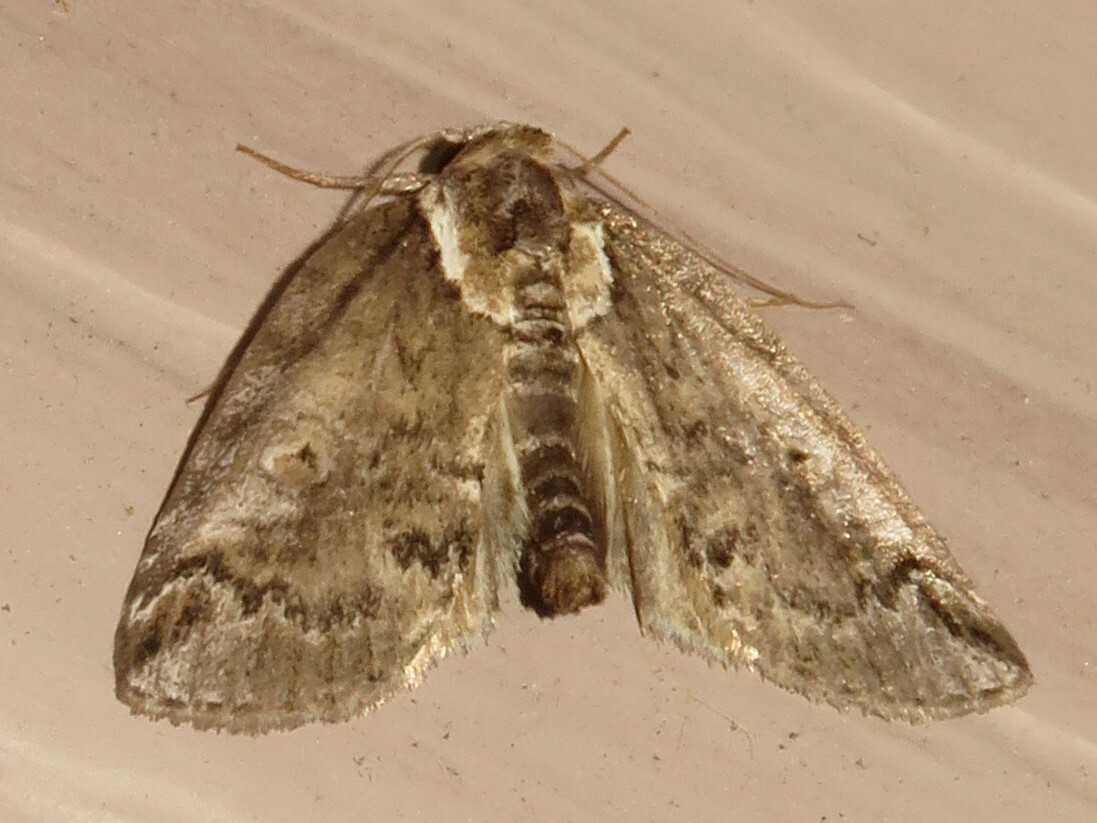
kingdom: Animalia
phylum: Arthropoda
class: Insecta
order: Lepidoptera
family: Nolidae
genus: Baileya
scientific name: Baileya ophthalmica
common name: Eyed baileya moth
